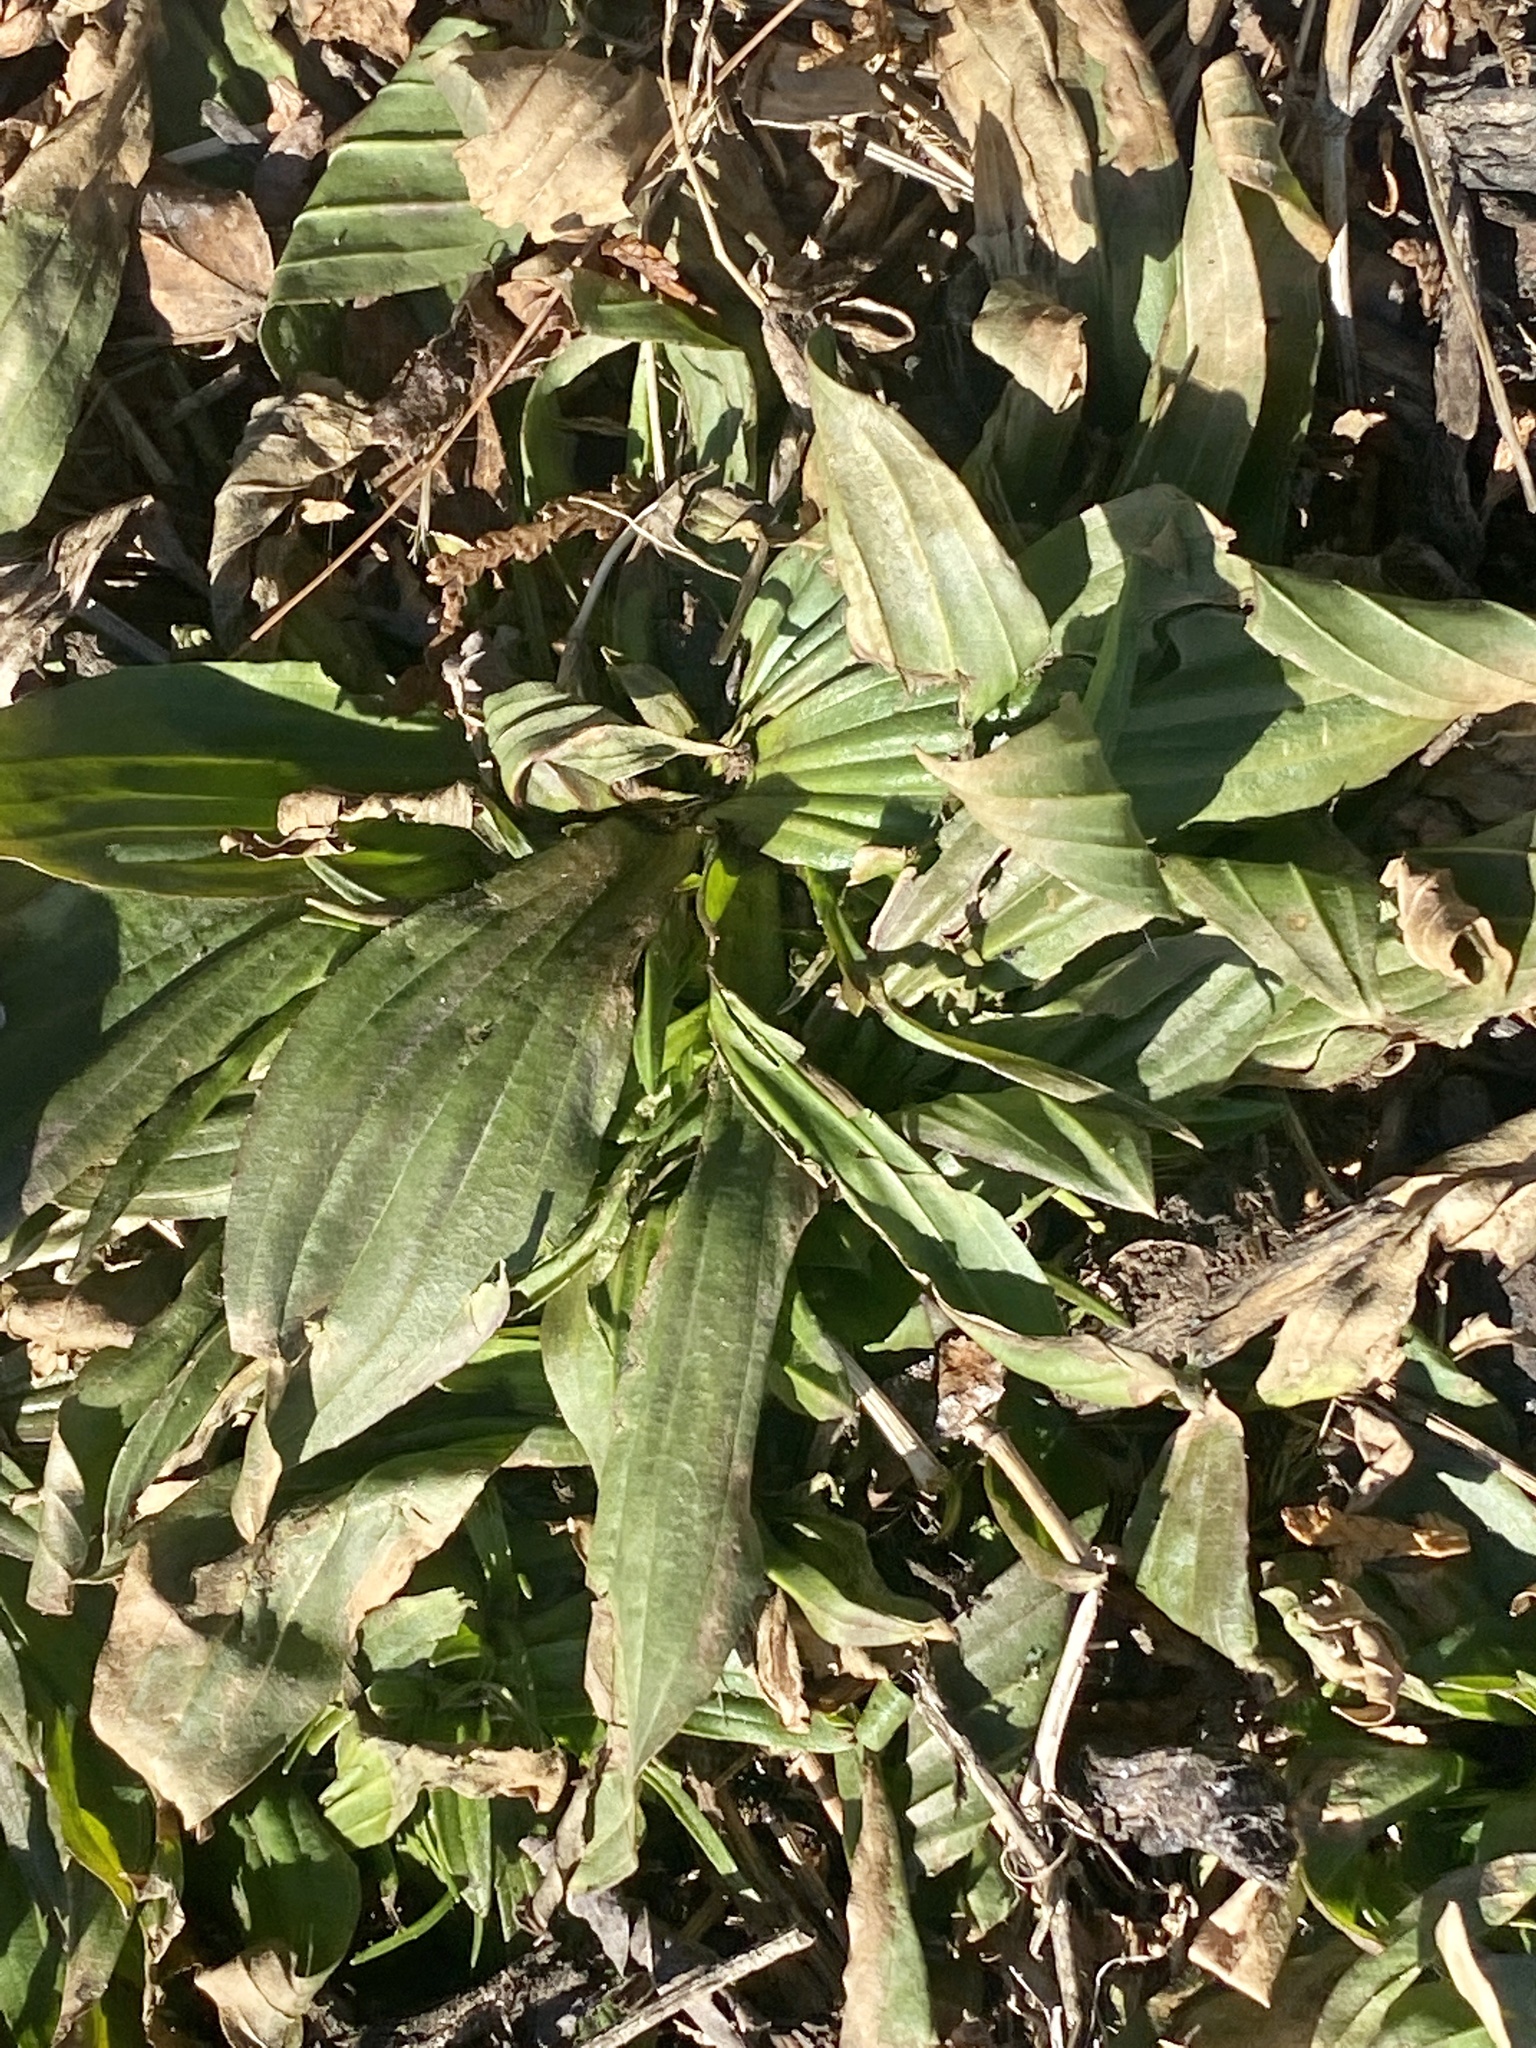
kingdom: Plantae
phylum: Tracheophyta
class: Magnoliopsida
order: Lamiales
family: Plantaginaceae
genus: Plantago
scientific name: Plantago lanceolata
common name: Ribwort plantain
